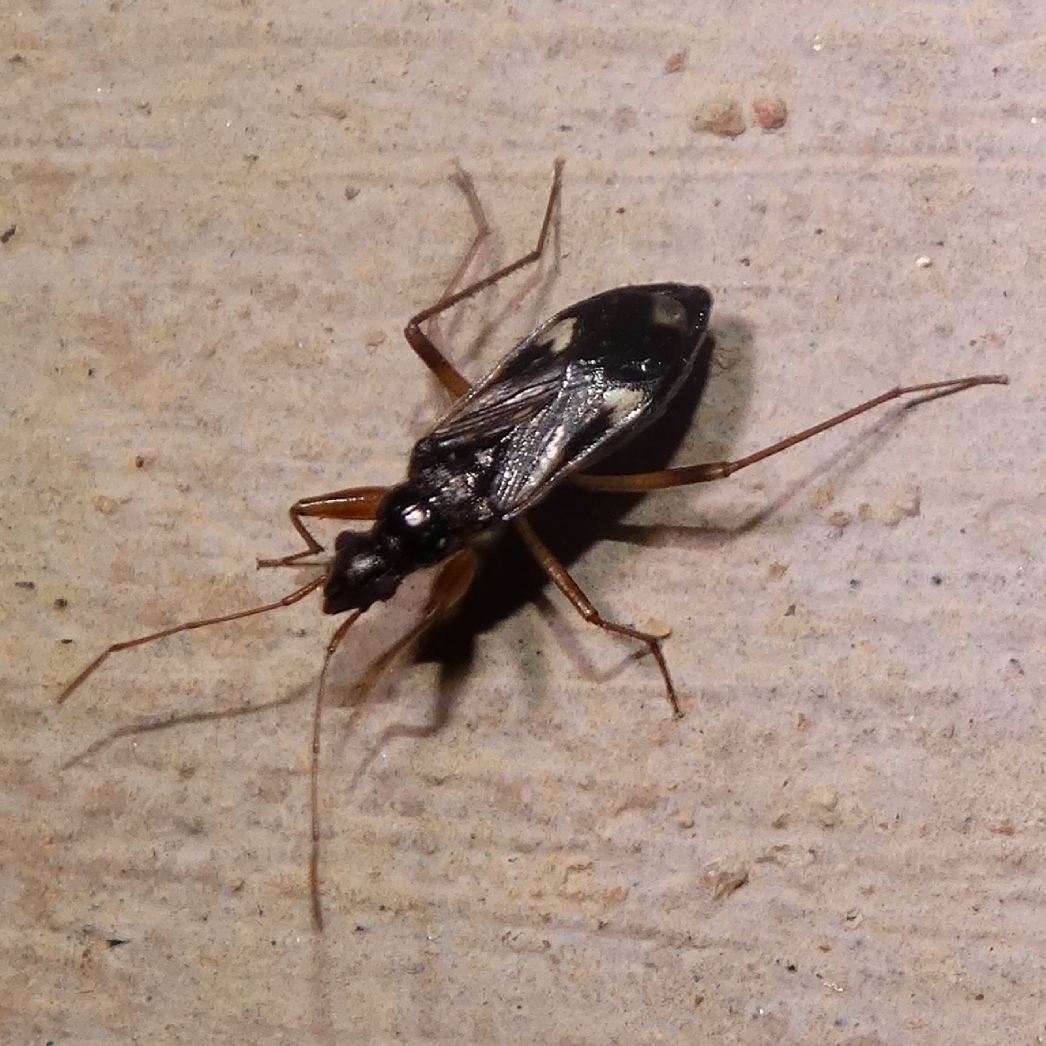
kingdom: Animalia
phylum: Arthropoda
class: Insecta
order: Hemiptera
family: Rhyparochromidae
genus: Pseudopamera
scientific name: Pseudopamera rubricata
